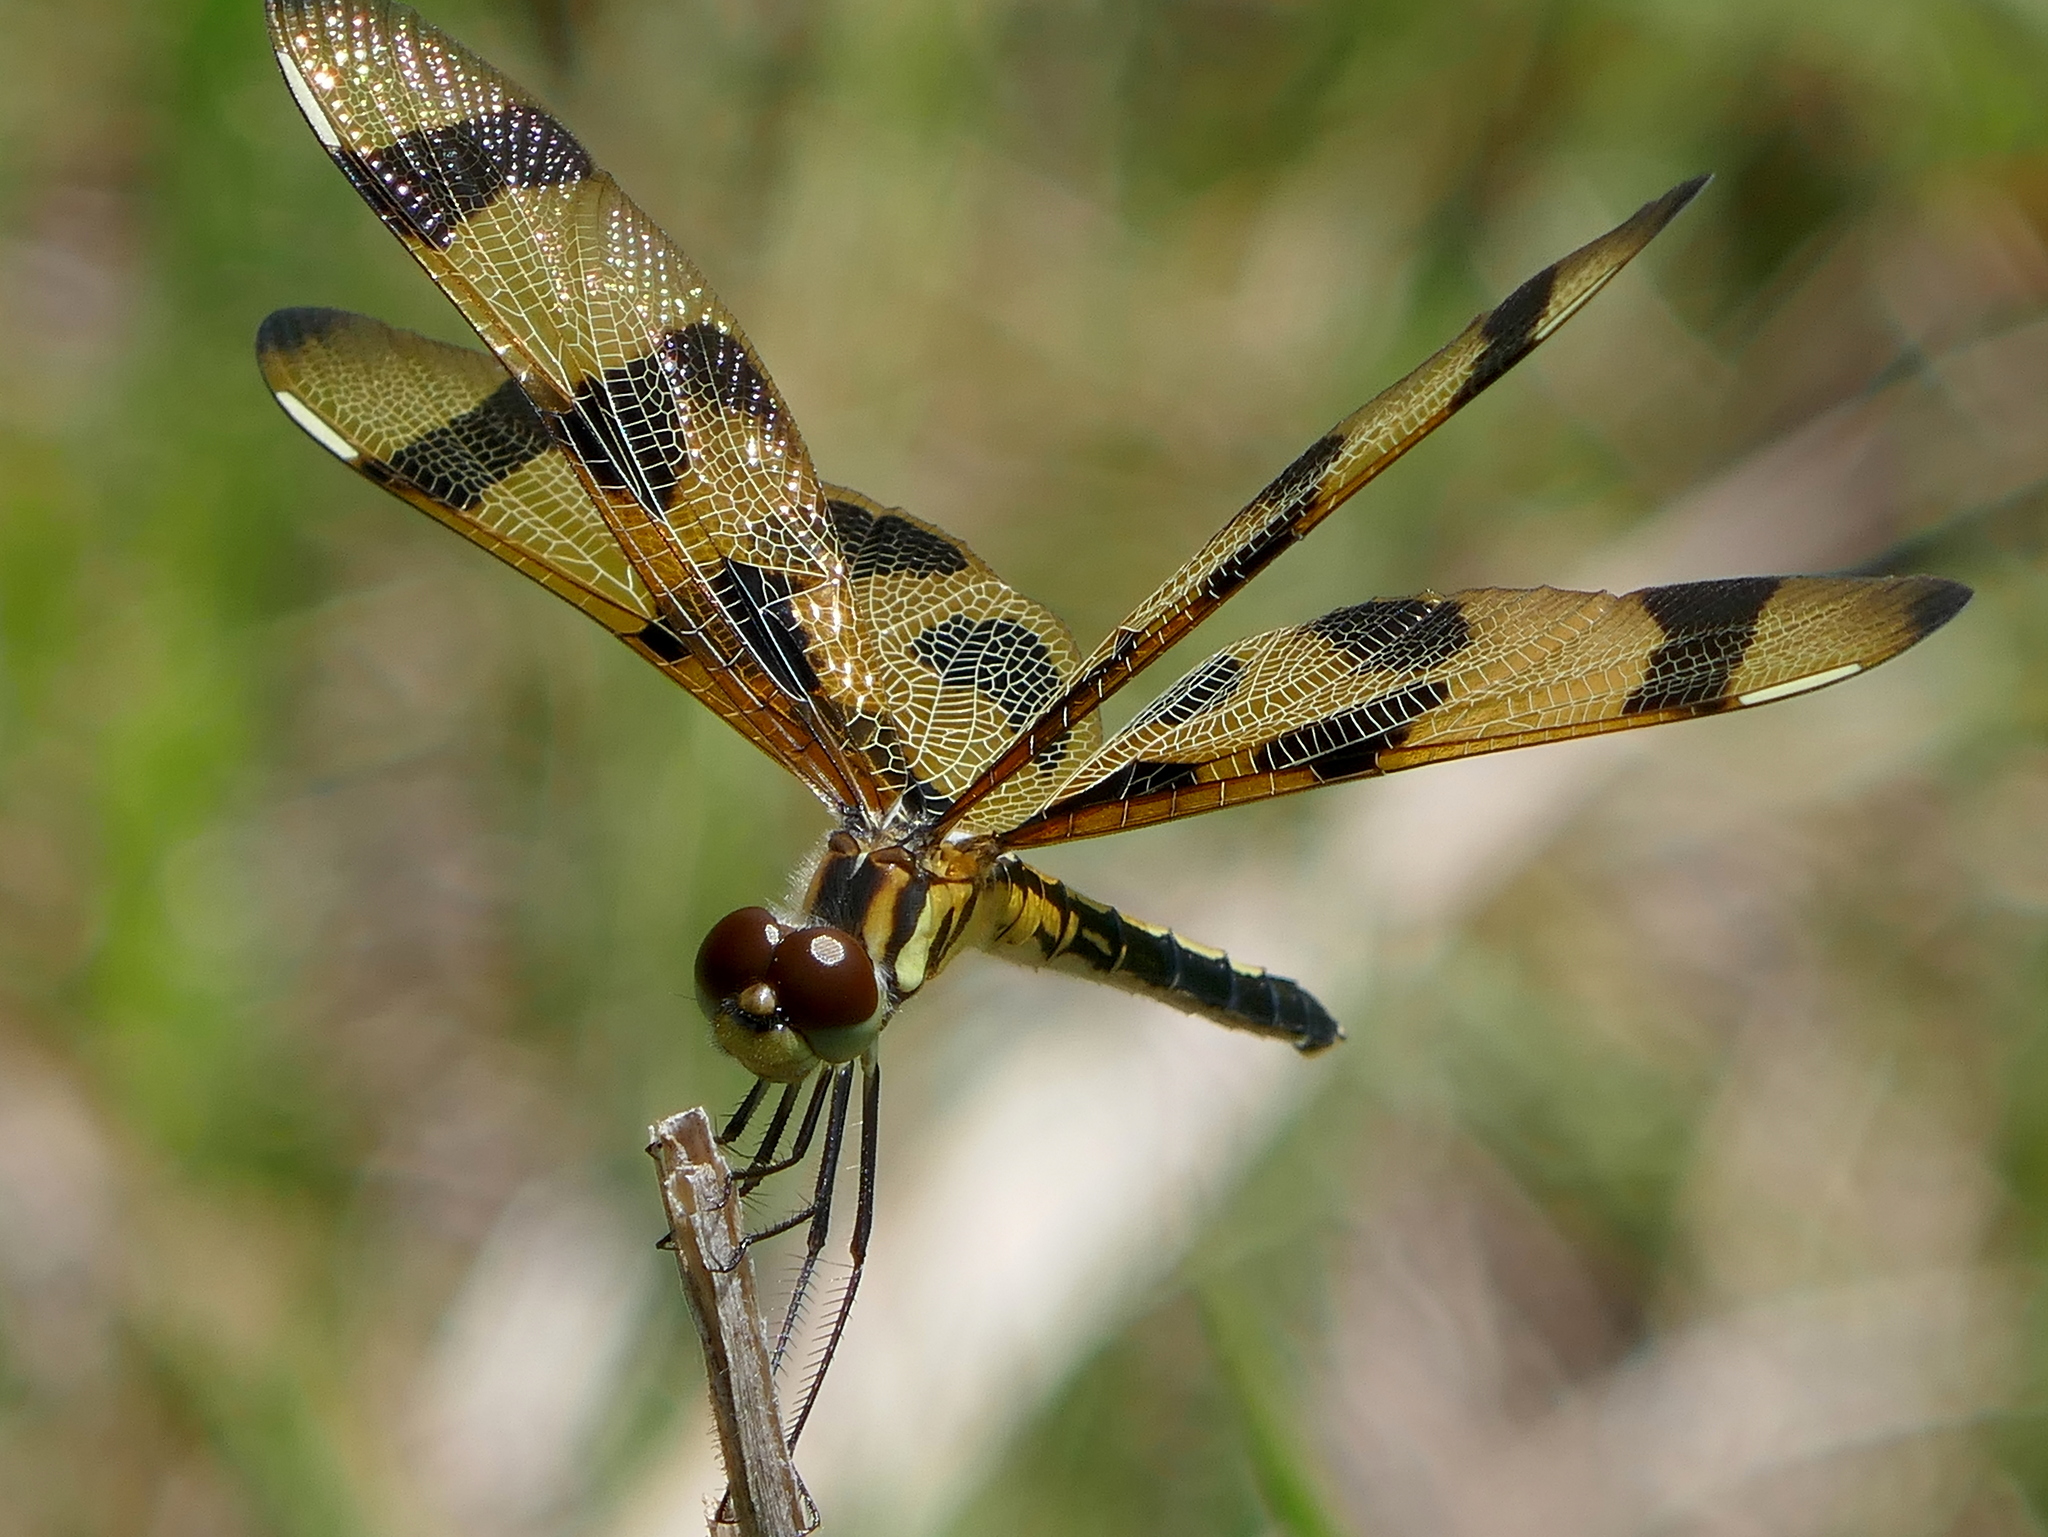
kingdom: Animalia
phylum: Arthropoda
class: Insecta
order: Odonata
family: Libellulidae
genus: Celithemis
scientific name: Celithemis eponina
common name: Halloween pennant
